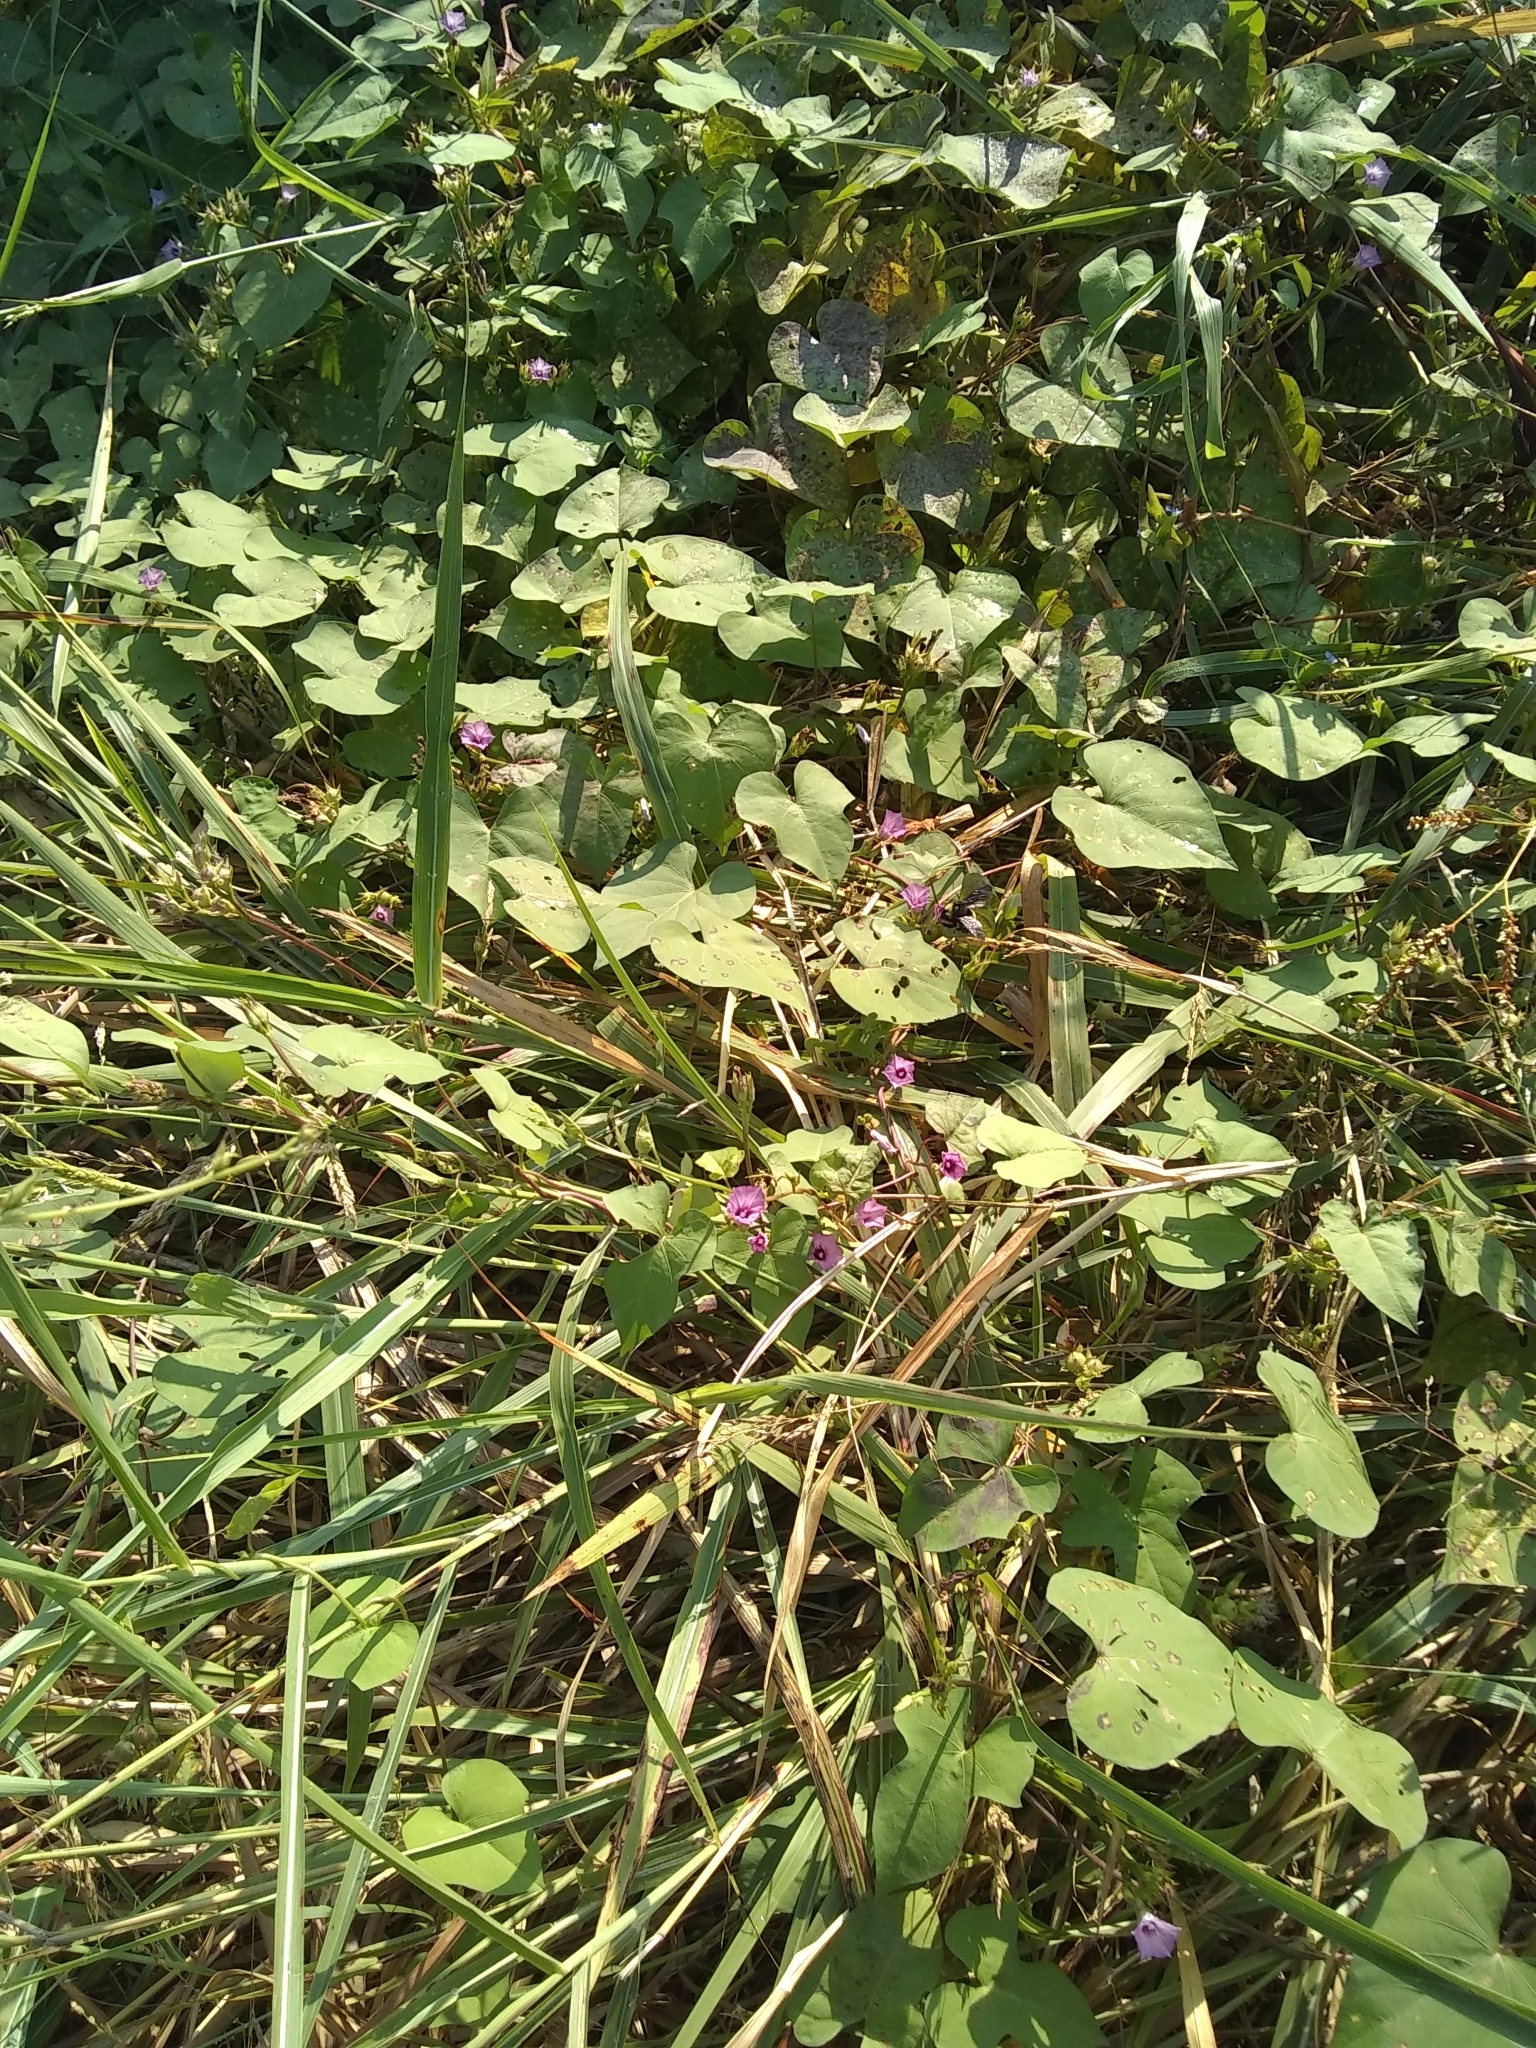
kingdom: Plantae
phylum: Tracheophyta
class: Magnoliopsida
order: Solanales
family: Convolvulaceae
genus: Ipomoea
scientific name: Ipomoea cordatotriloba
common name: Cotton morning glory
